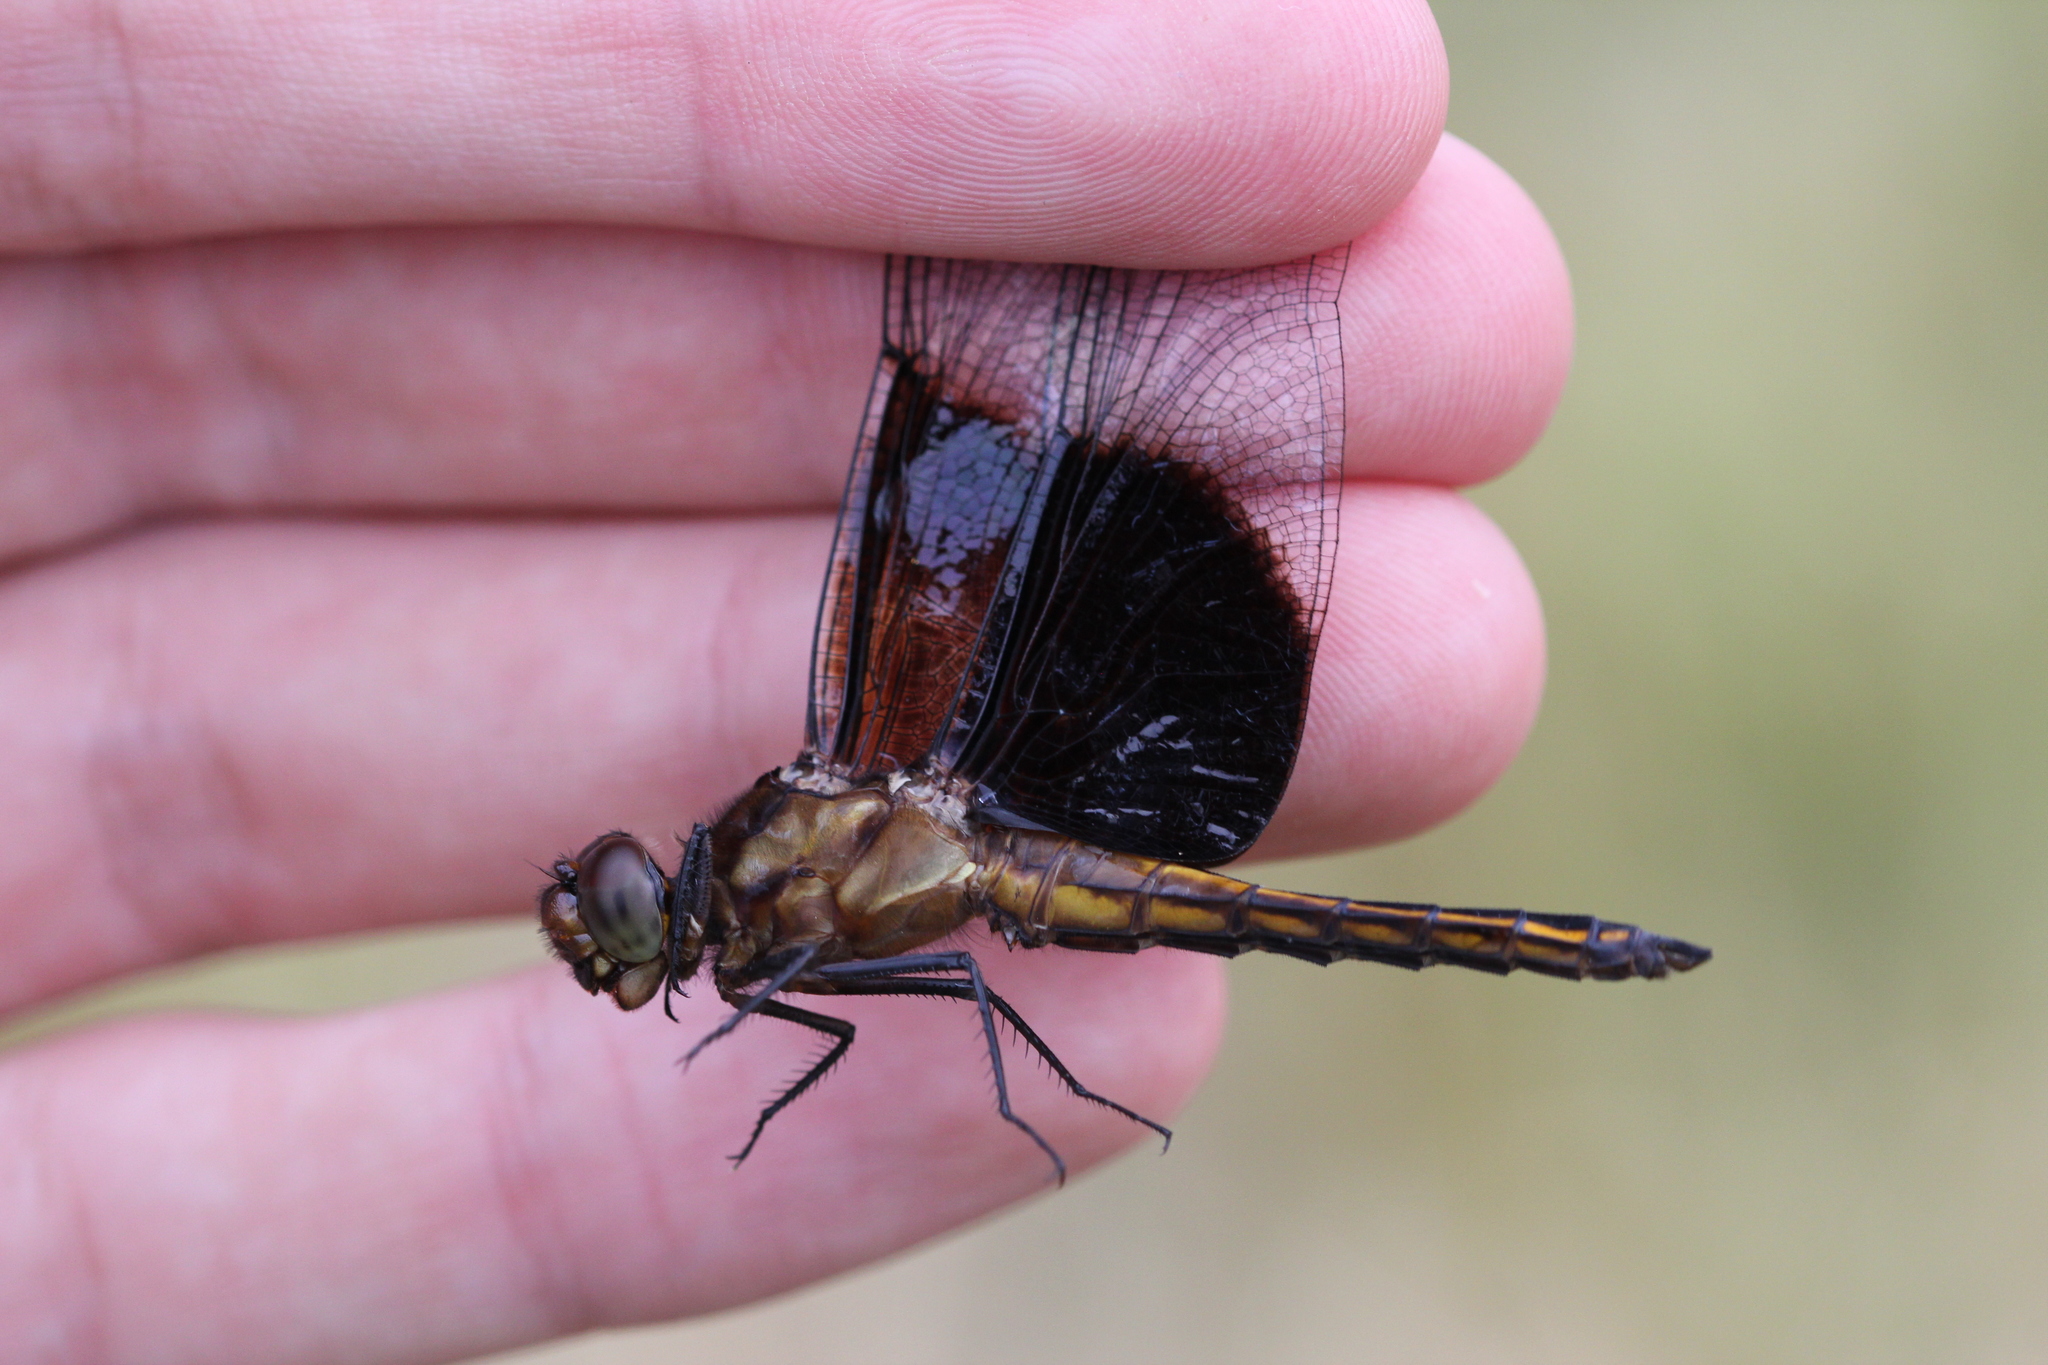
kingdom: Animalia
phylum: Arthropoda
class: Insecta
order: Odonata
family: Libellulidae
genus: Libellula
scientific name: Libellula luctuosa
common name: Widow skimmer
